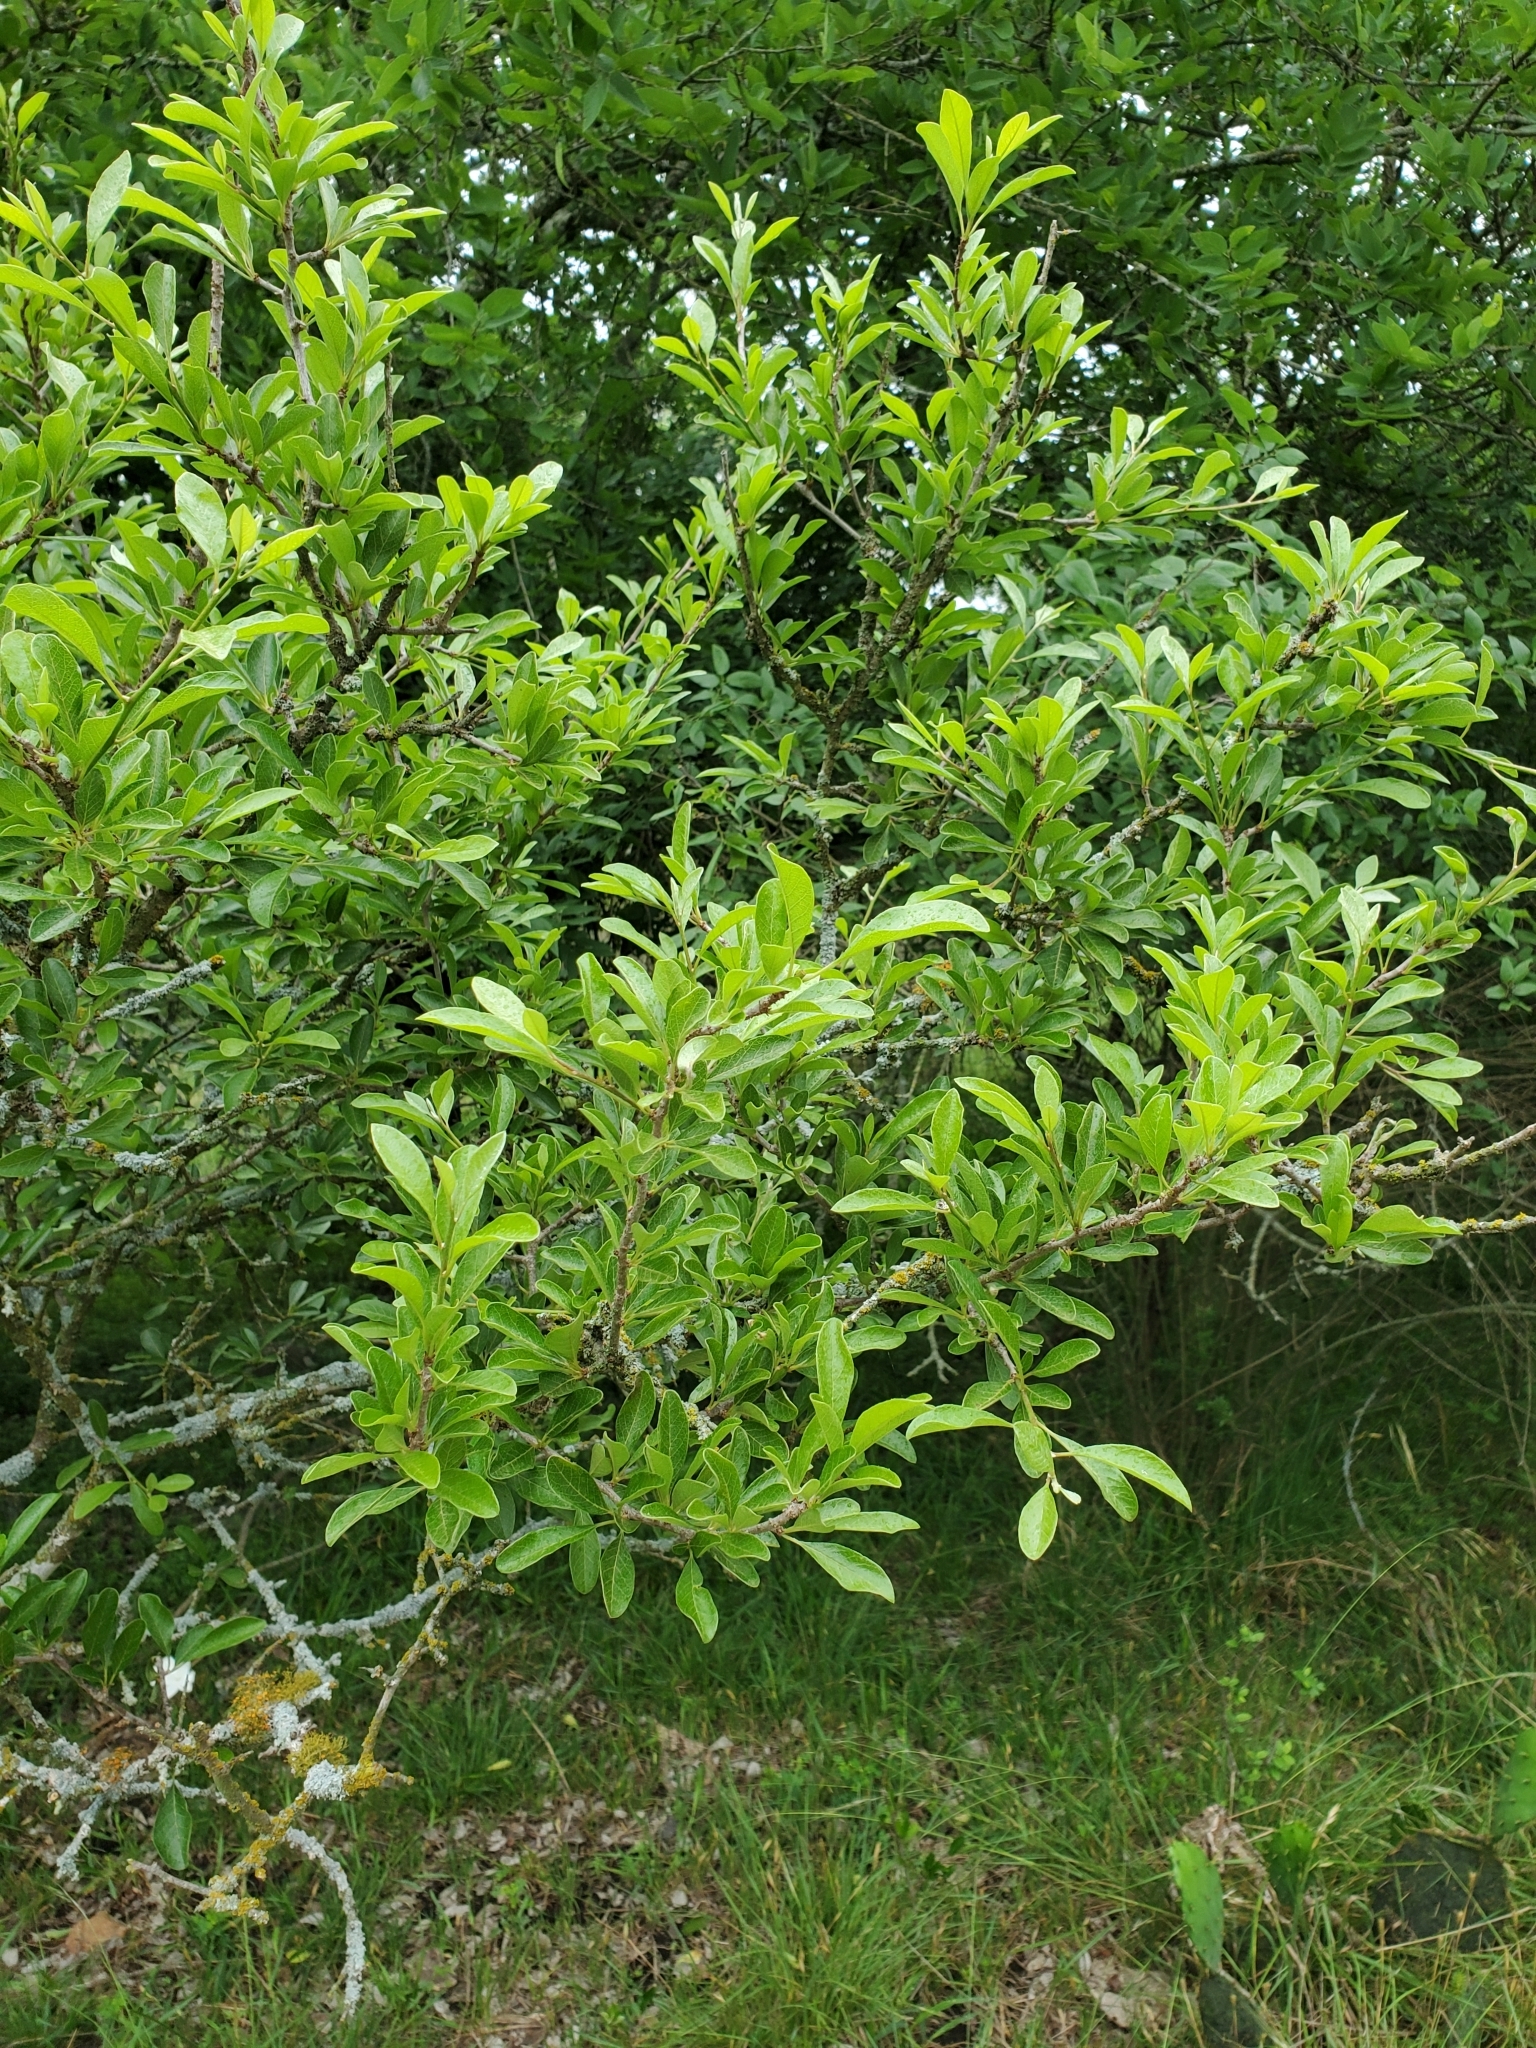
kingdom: Plantae
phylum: Tracheophyta
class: Magnoliopsida
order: Ericales
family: Sapotaceae
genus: Sideroxylon
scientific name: Sideroxylon lanuginosum
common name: Chittamwood
